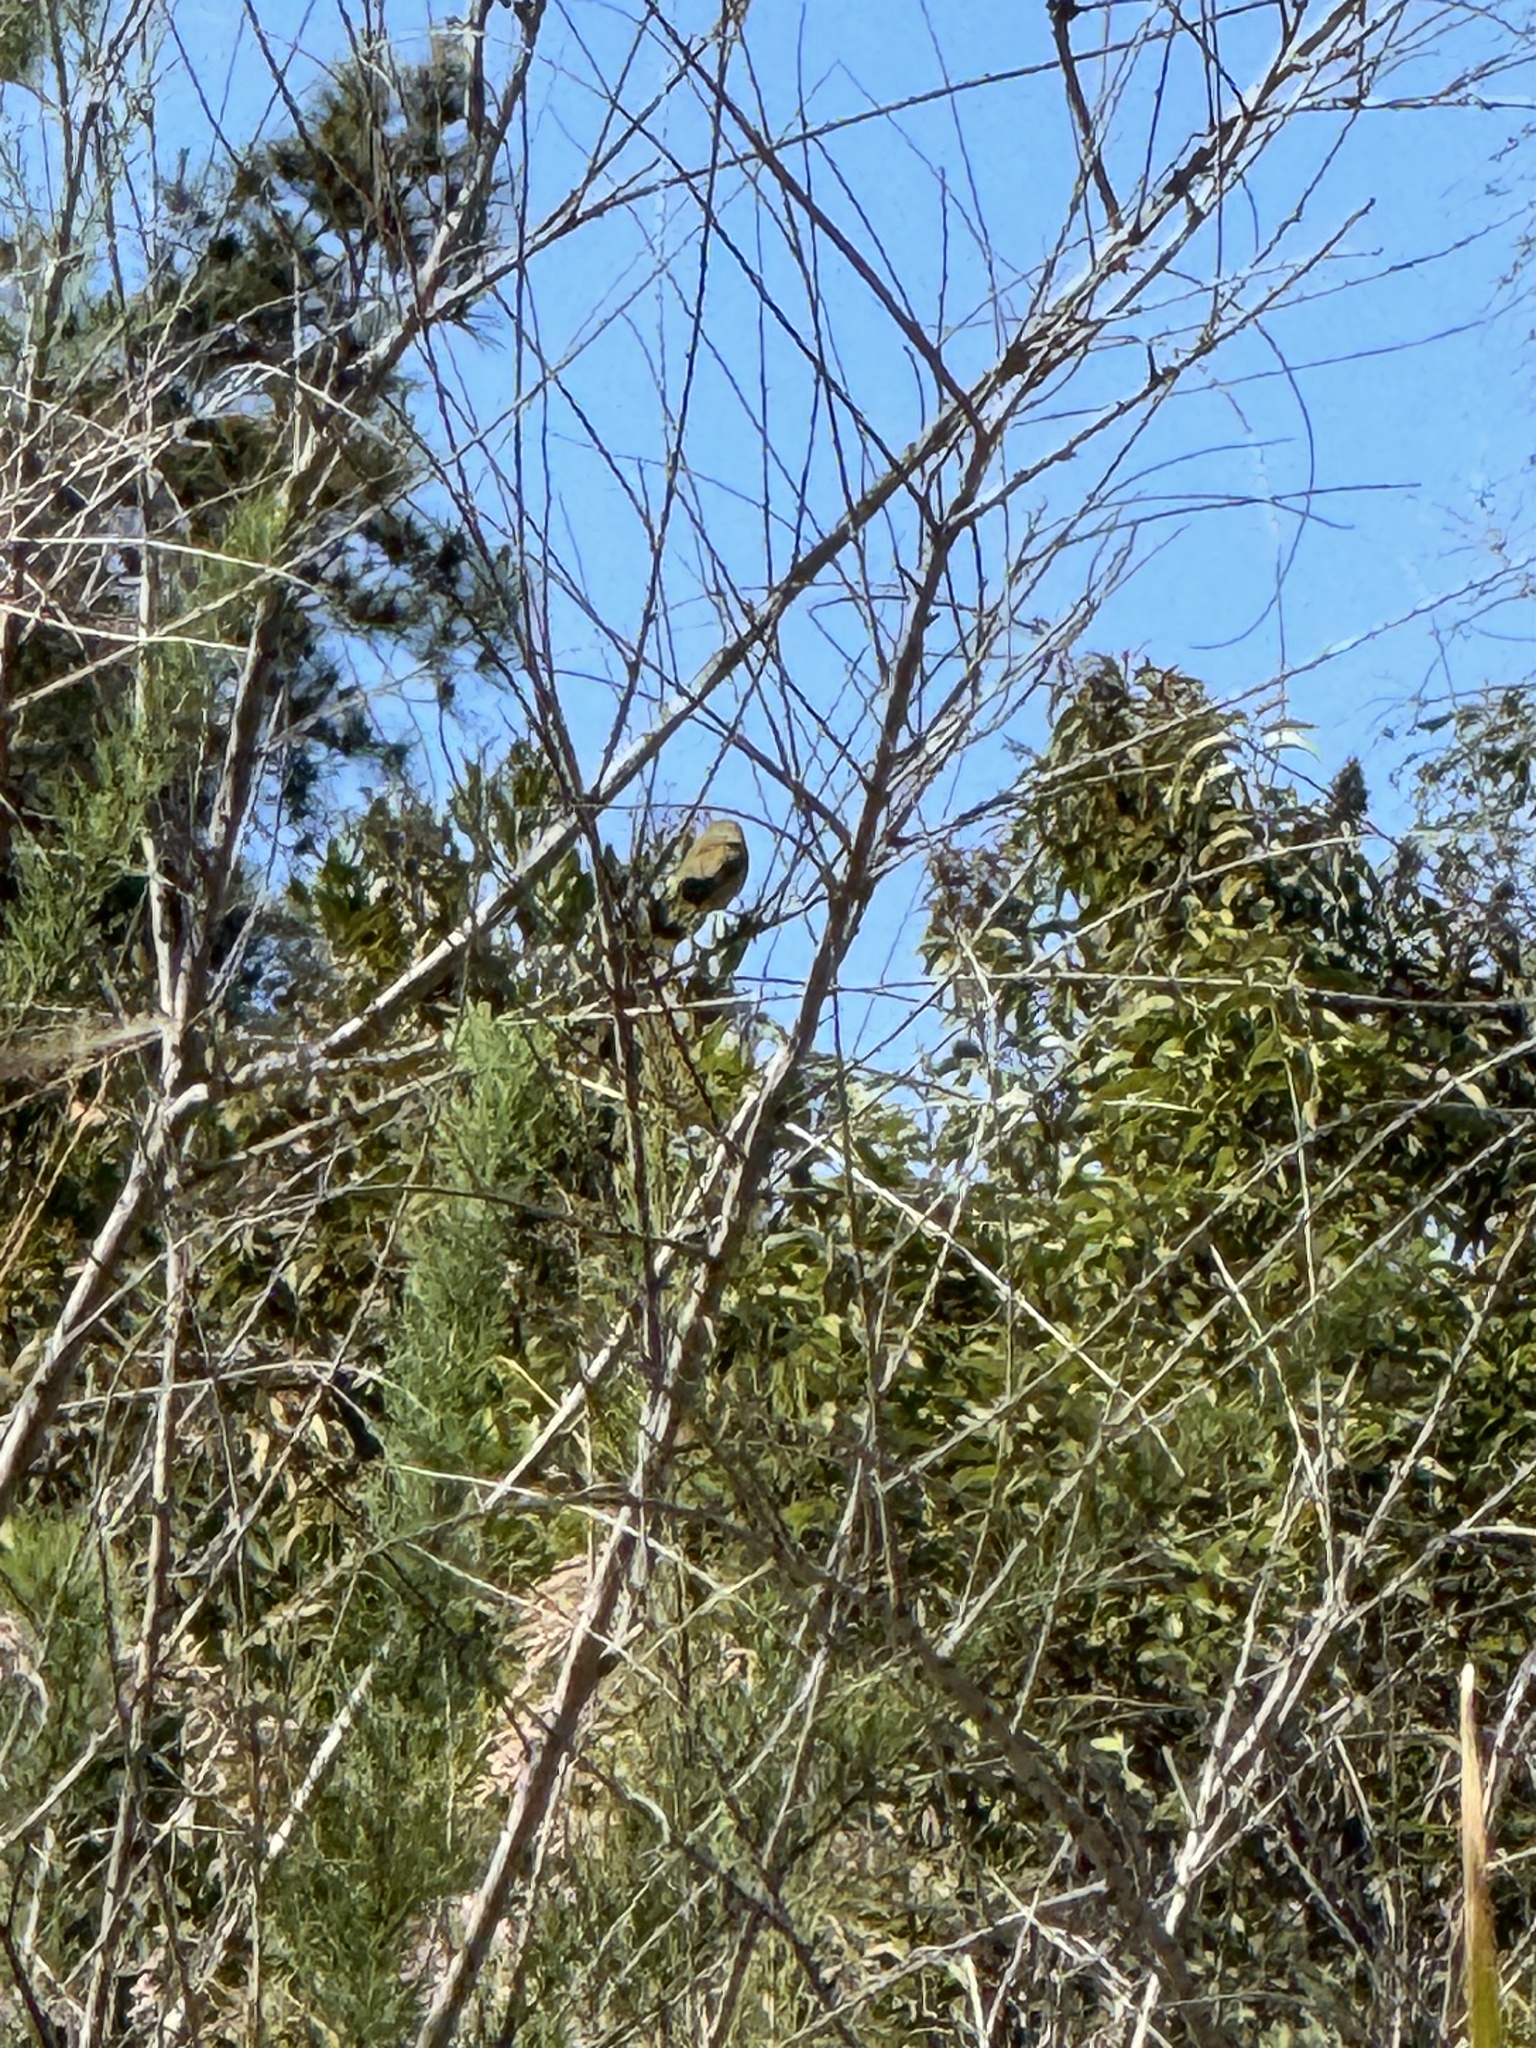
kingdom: Animalia
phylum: Chordata
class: Aves
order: Passeriformes
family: Parulidae
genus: Geothlypis
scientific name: Geothlypis trichas
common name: Common yellowthroat
